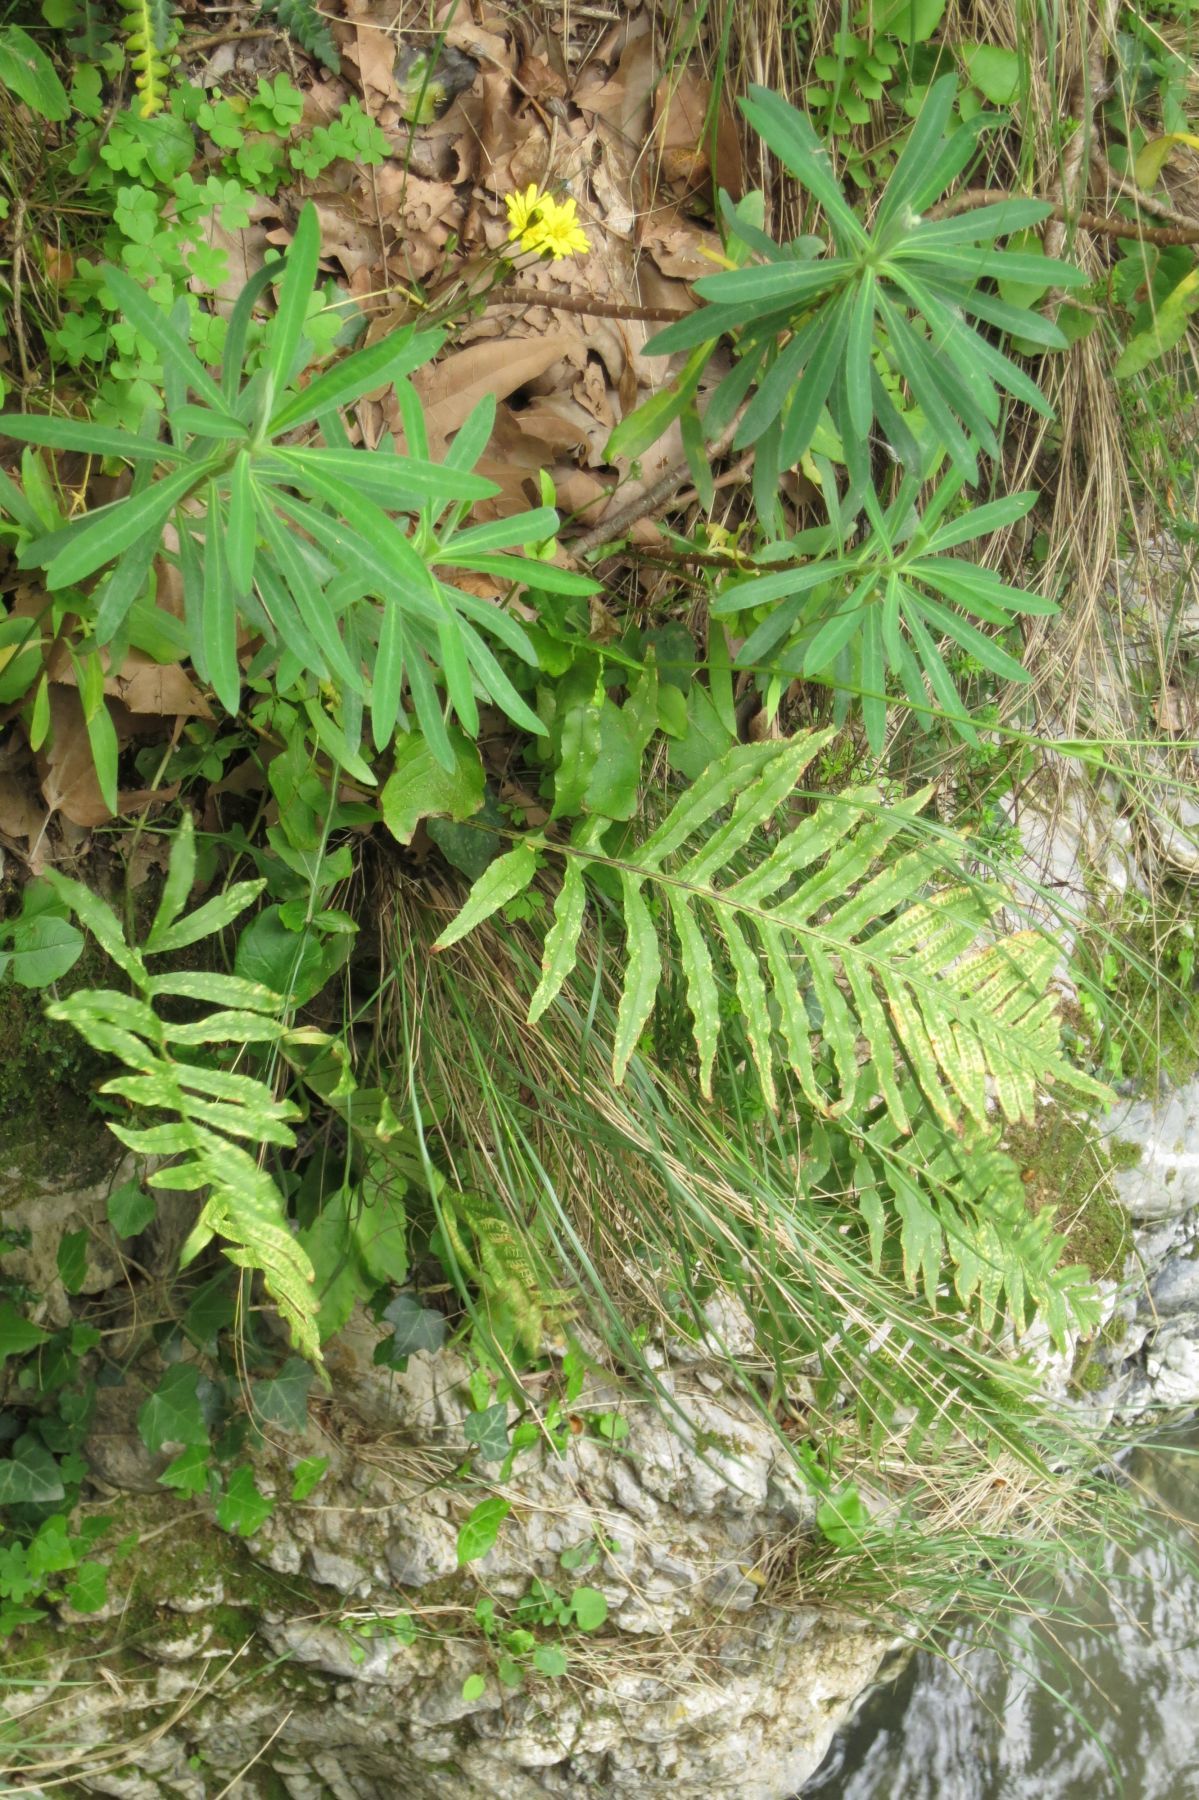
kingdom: Plantae
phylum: Tracheophyta
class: Polypodiopsida
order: Polypodiales
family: Polypodiaceae
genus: Polypodium
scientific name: Polypodium cambricum
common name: Southern polypody
